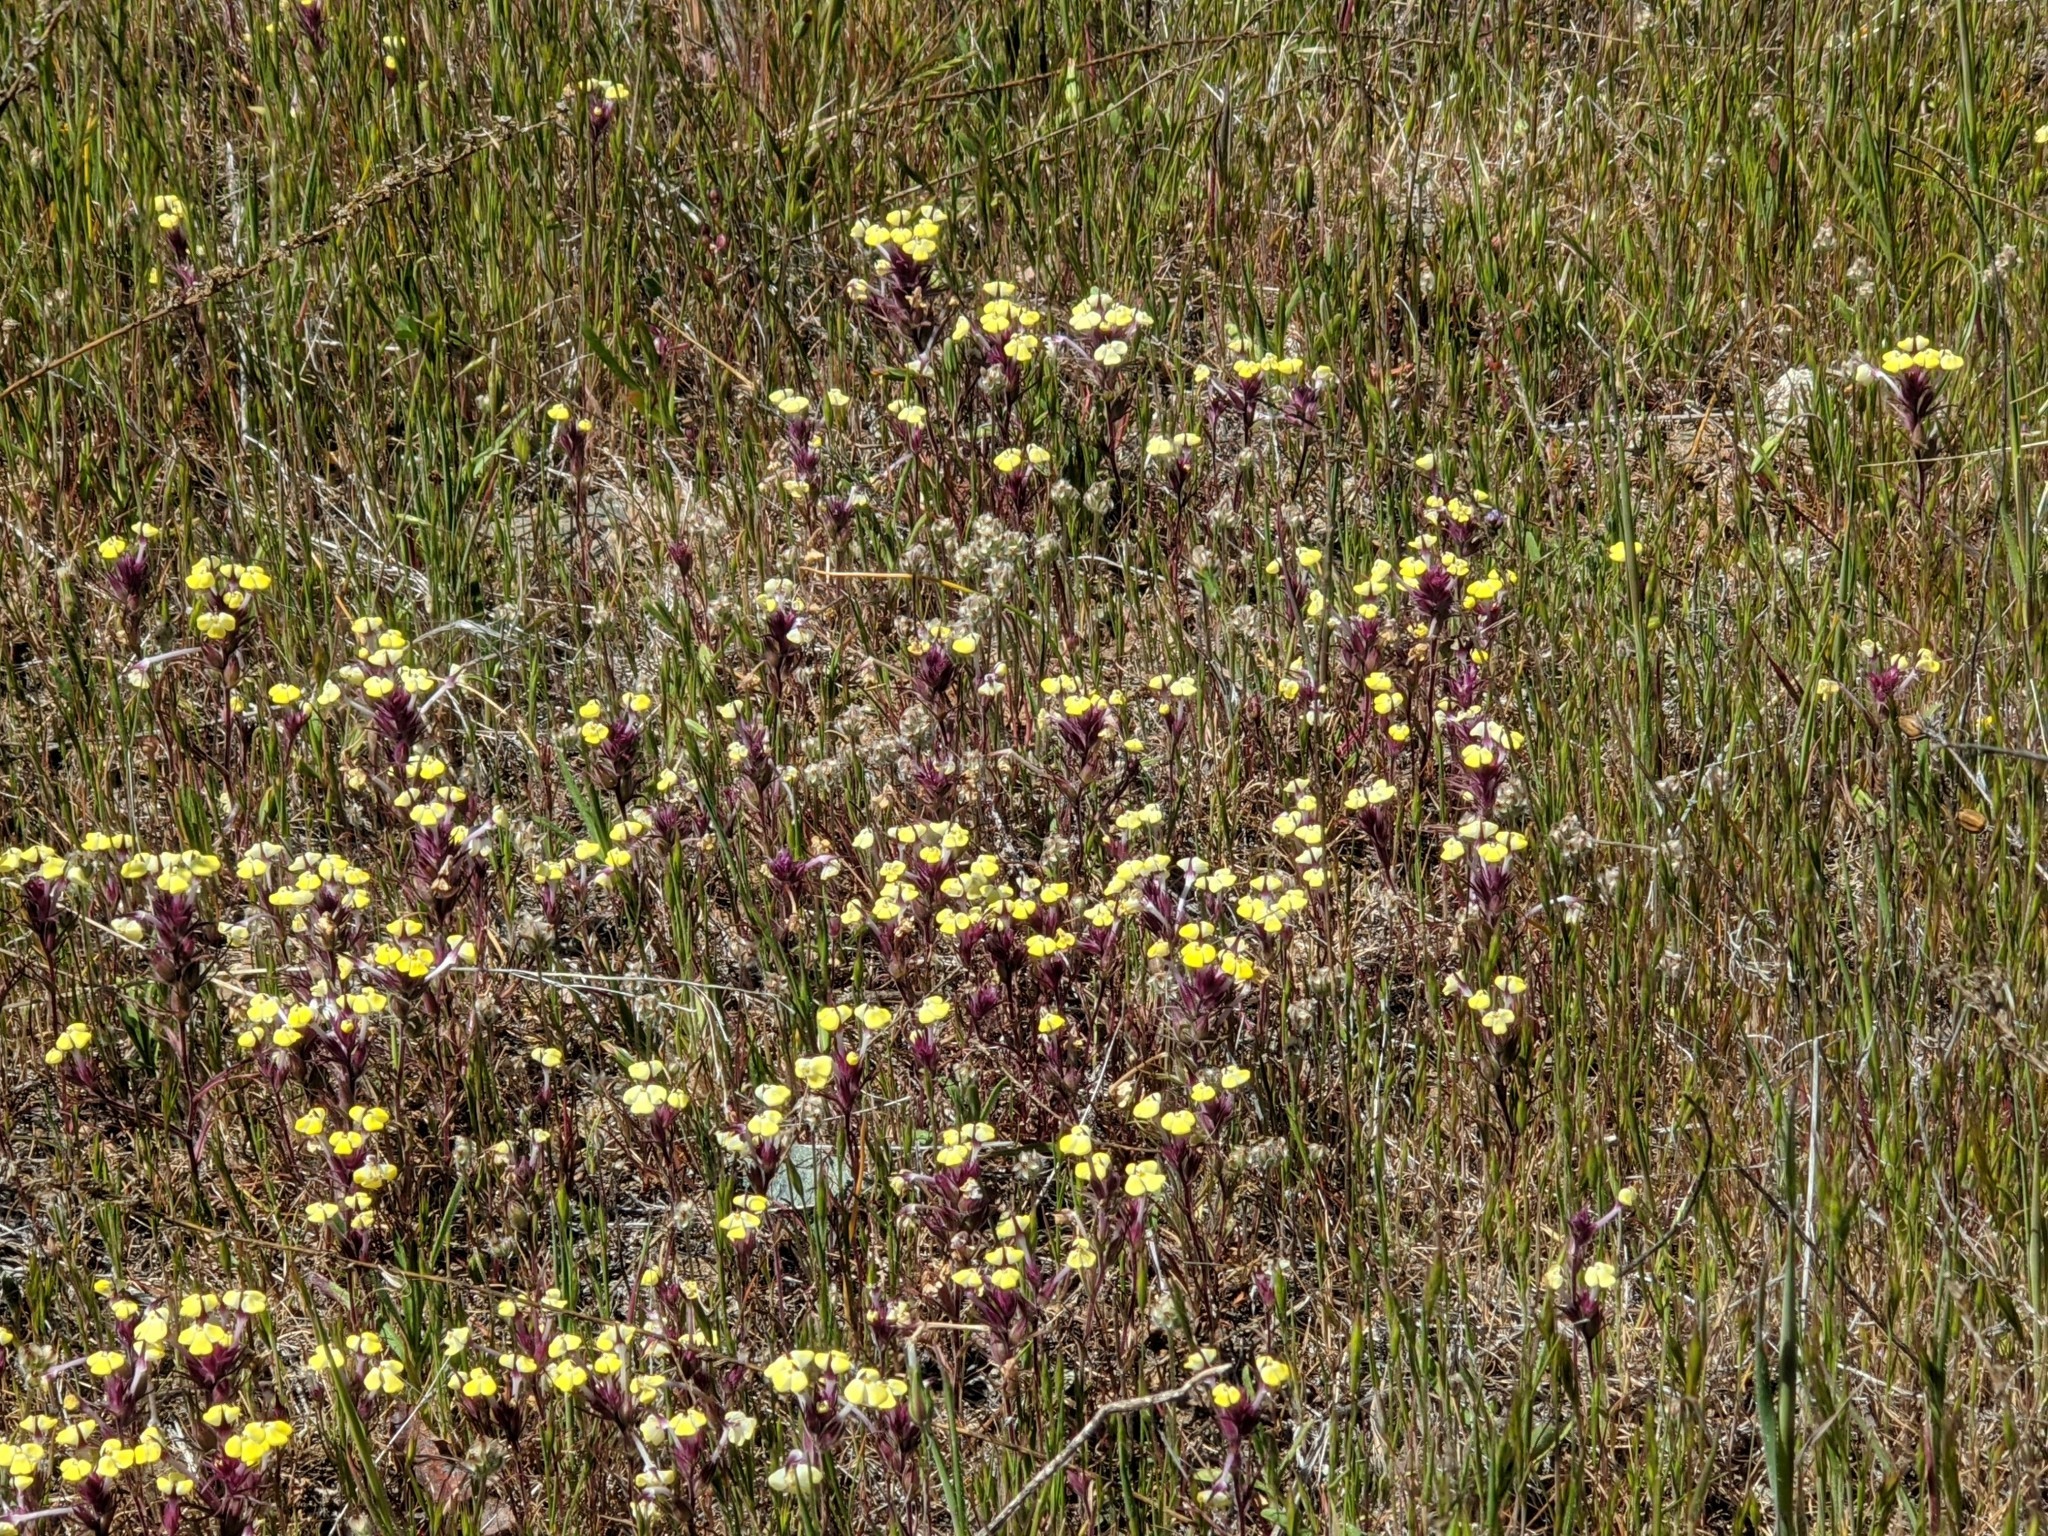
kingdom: Plantae
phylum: Tracheophyta
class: Magnoliopsida
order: Lamiales
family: Orobanchaceae
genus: Triphysaria
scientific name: Triphysaria eriantha
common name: Johnny-tuck
